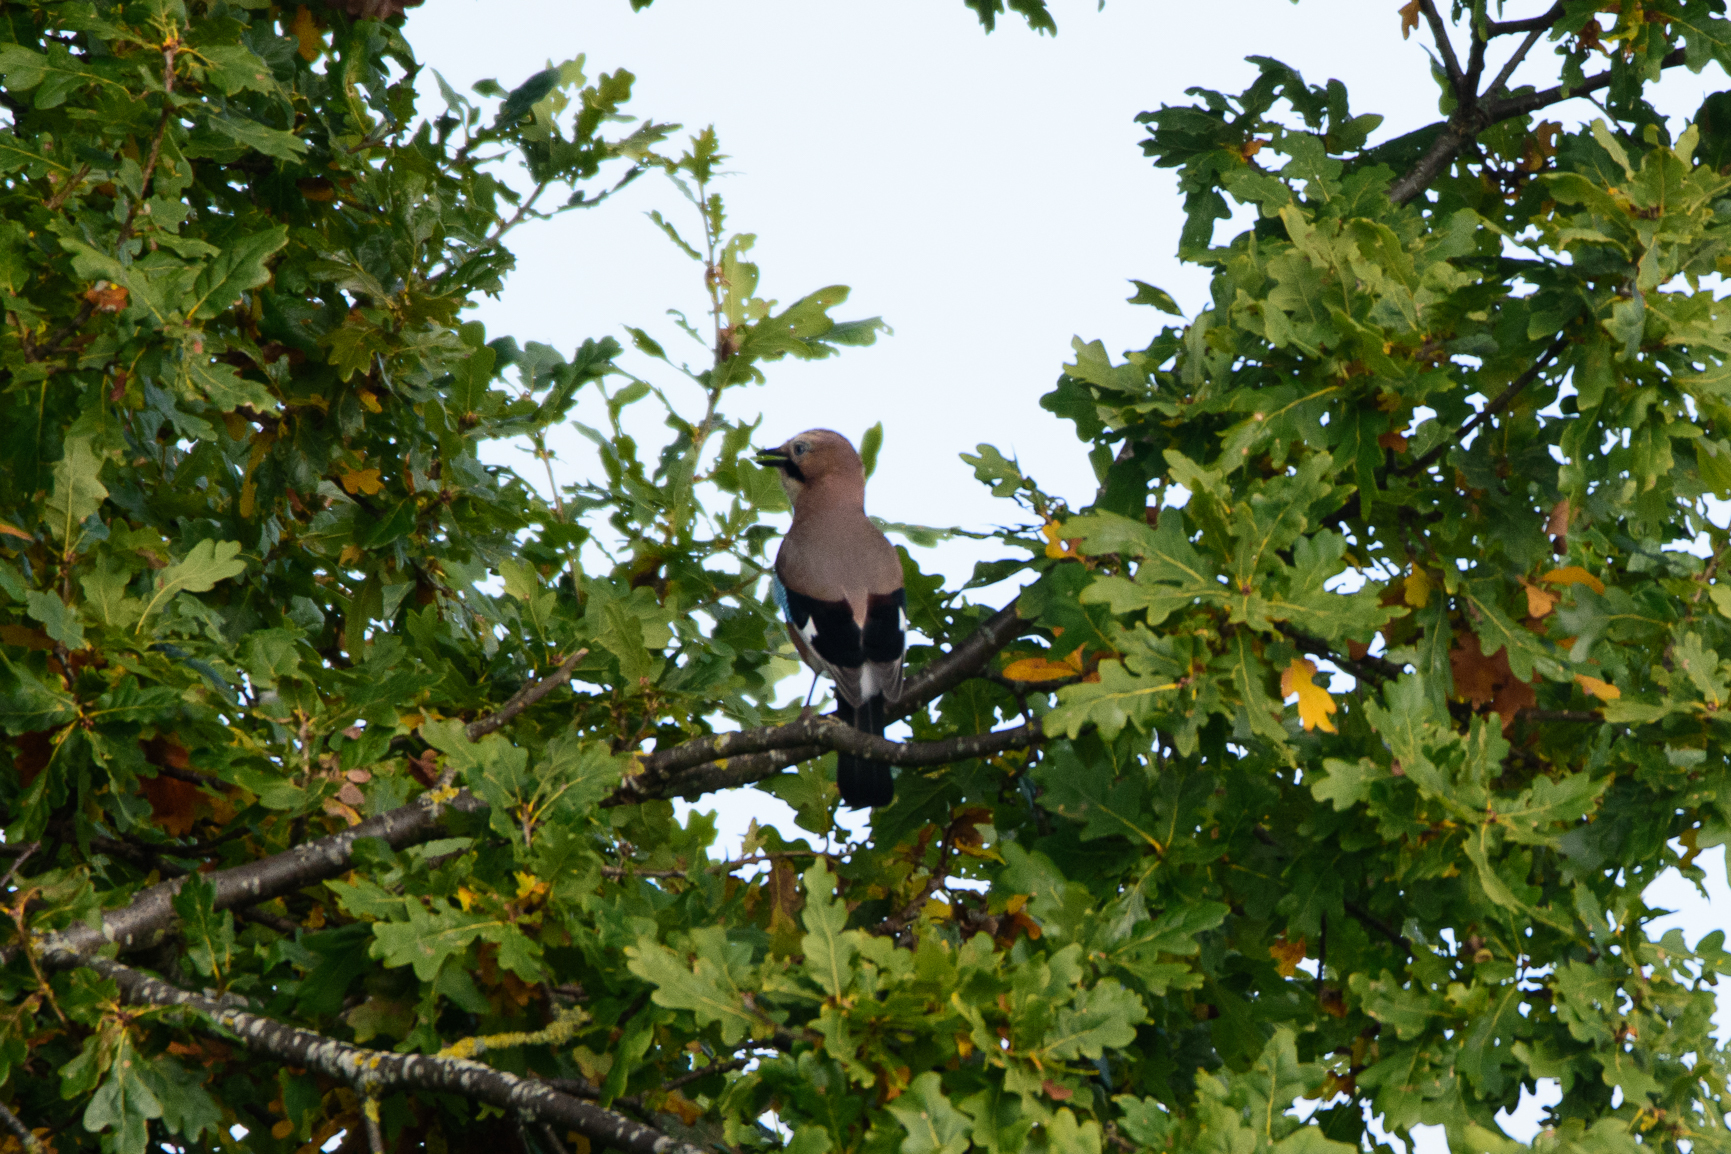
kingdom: Animalia
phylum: Chordata
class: Aves
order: Passeriformes
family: Corvidae
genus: Garrulus
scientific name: Garrulus glandarius
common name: Eurasian jay
